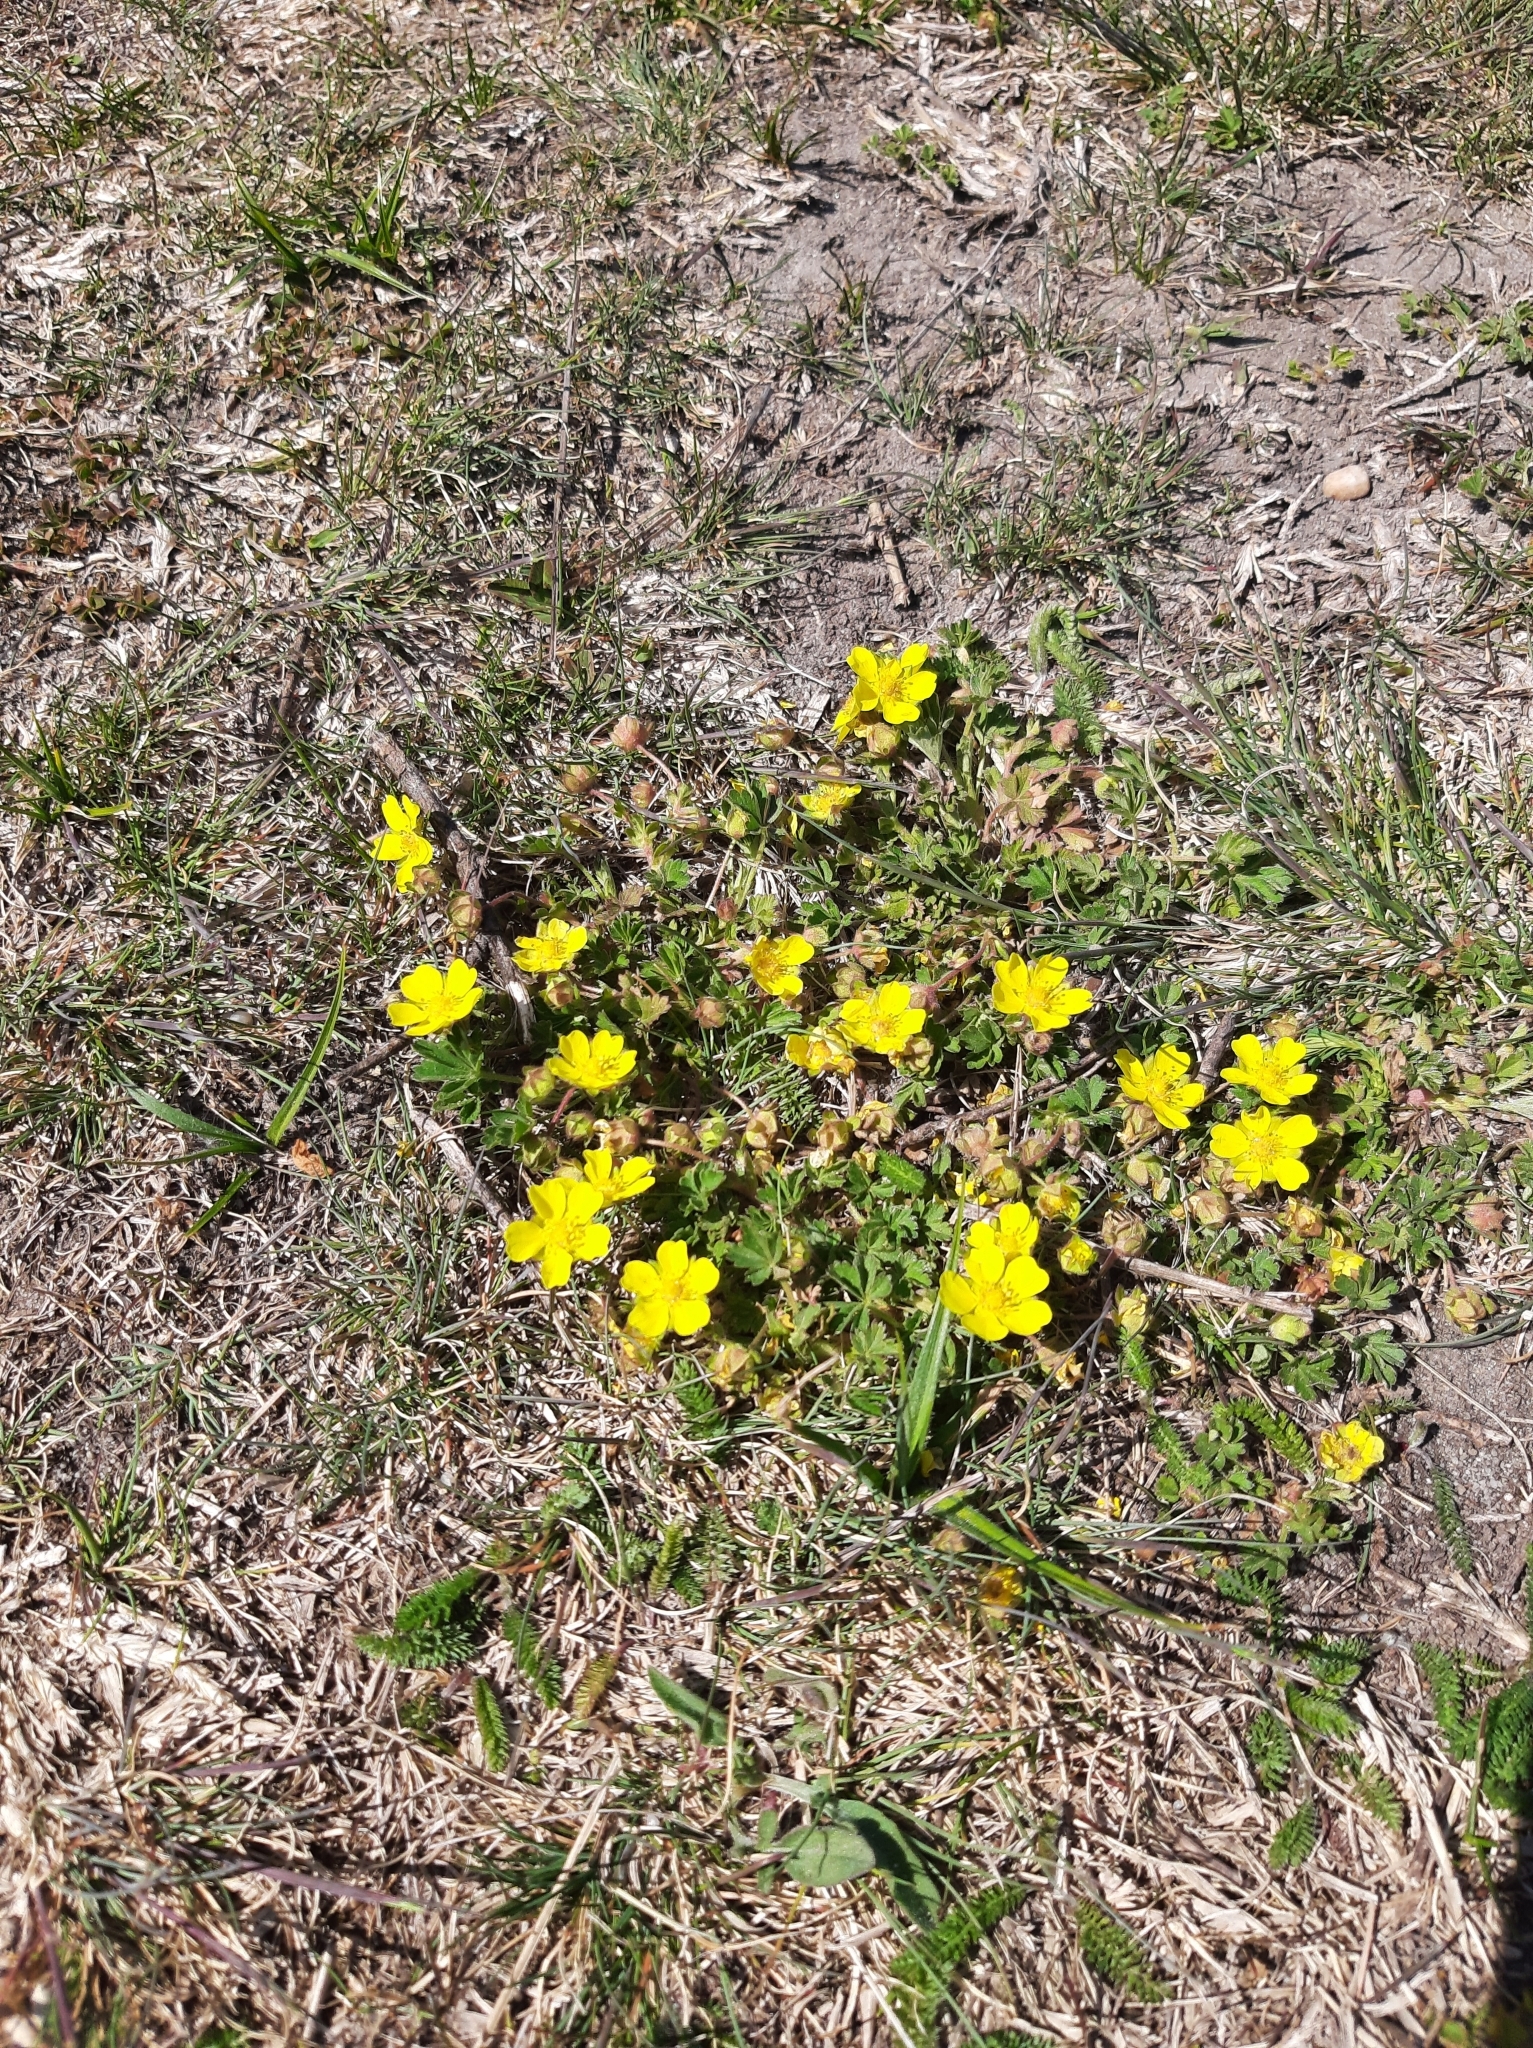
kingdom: Plantae
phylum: Tracheophyta
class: Magnoliopsida
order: Rosales
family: Rosaceae
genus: Potentilla
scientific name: Potentilla incana
